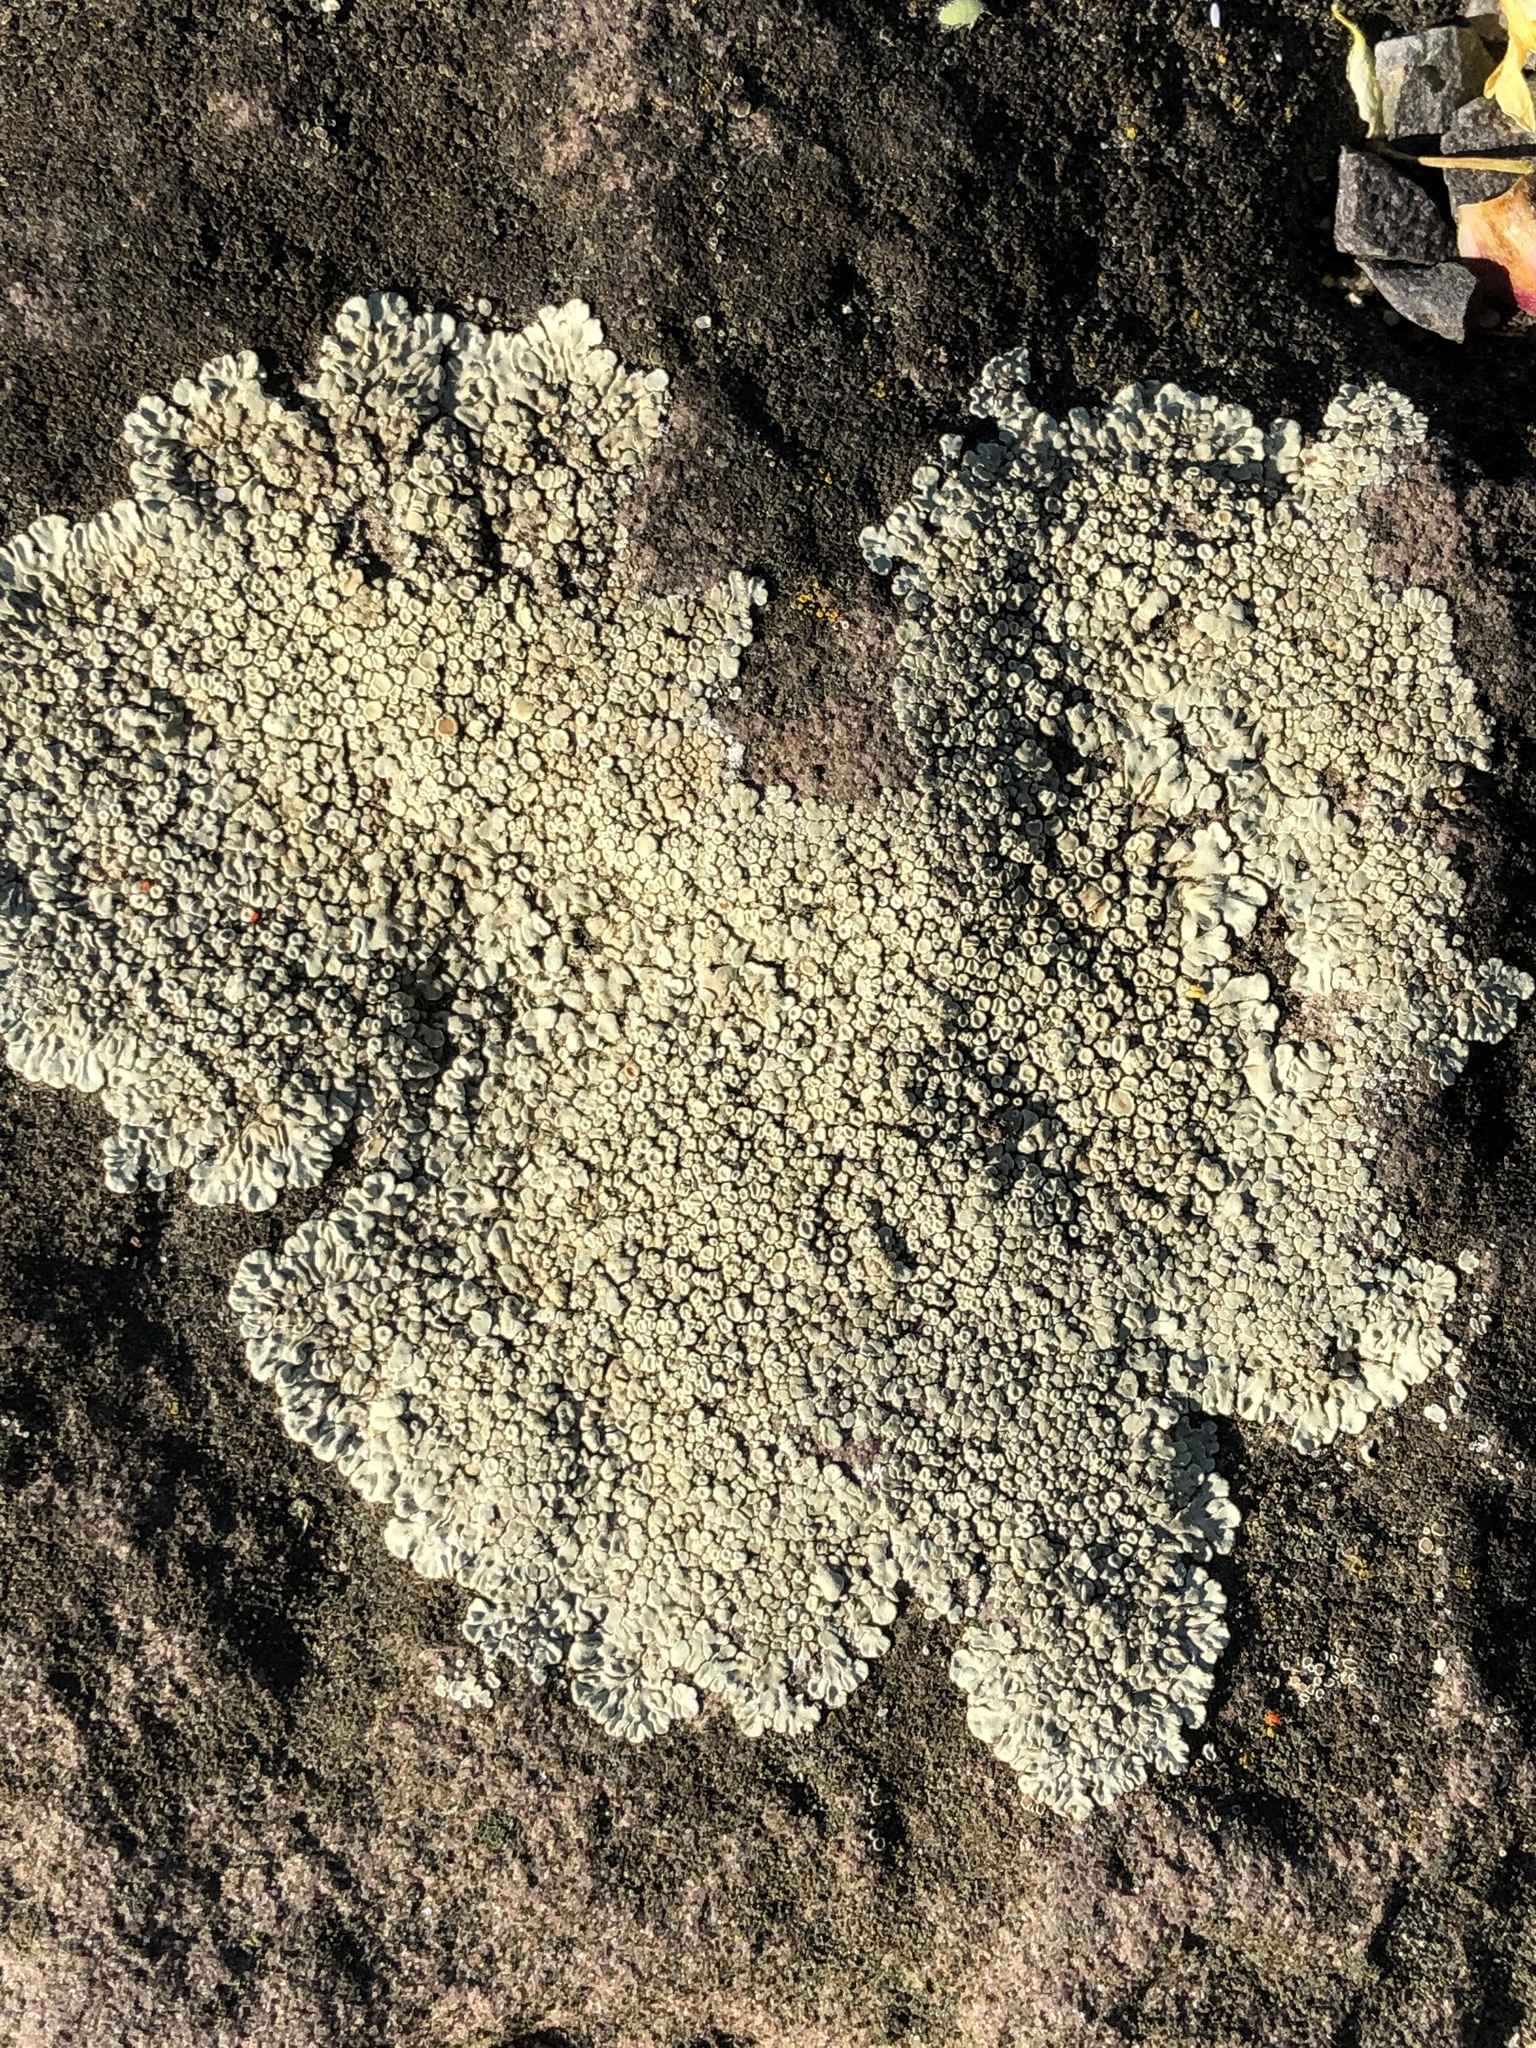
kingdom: Fungi
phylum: Ascomycota
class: Lecanoromycetes
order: Lecanorales
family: Lecanoraceae
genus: Protoparmeliopsis
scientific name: Protoparmeliopsis muralis
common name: Stonewall rim lichen
